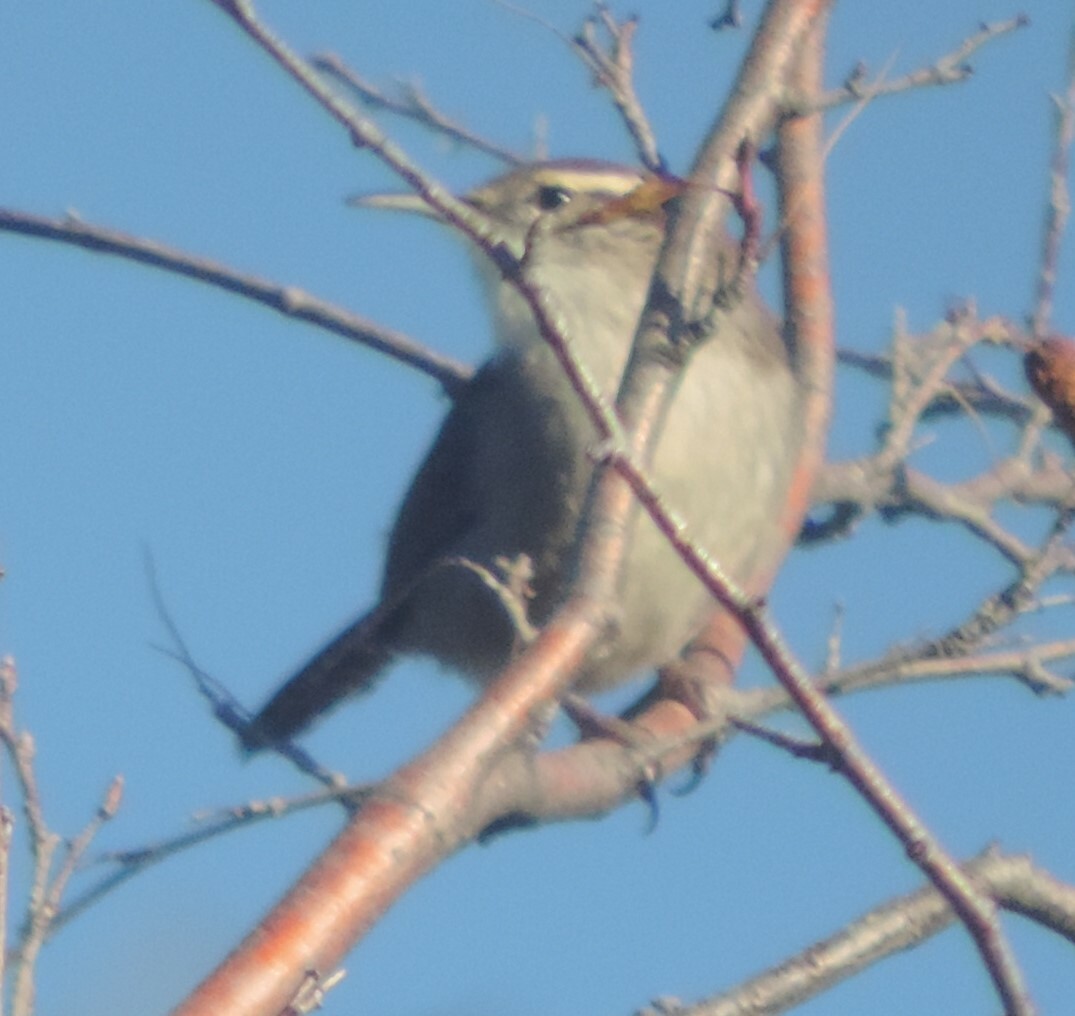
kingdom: Animalia
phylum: Chordata
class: Aves
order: Passeriformes
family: Troglodytidae
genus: Thryomanes
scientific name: Thryomanes bewickii
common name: Bewick's wren
